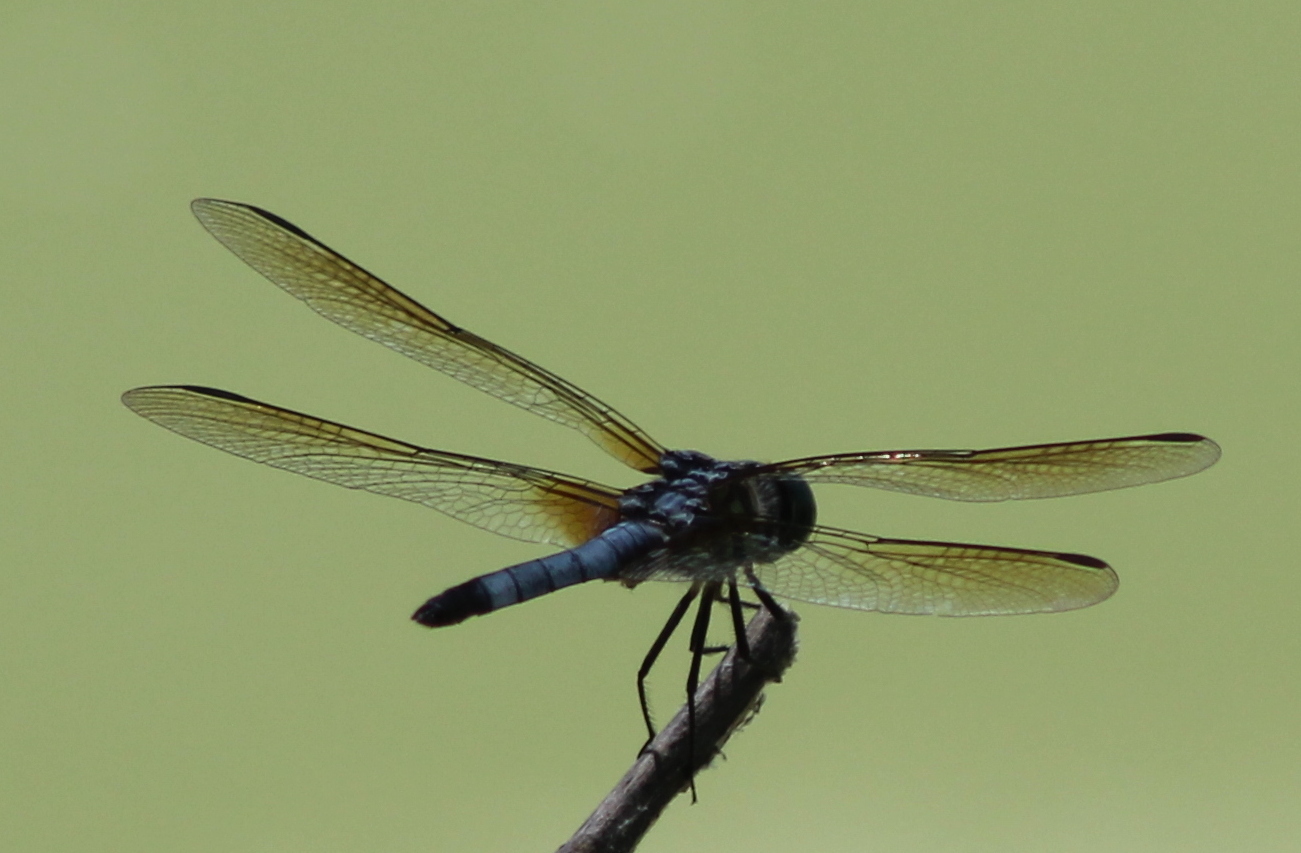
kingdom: Animalia
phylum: Arthropoda
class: Insecta
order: Odonata
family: Libellulidae
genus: Pachydiplax
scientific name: Pachydiplax longipennis
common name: Blue dasher
